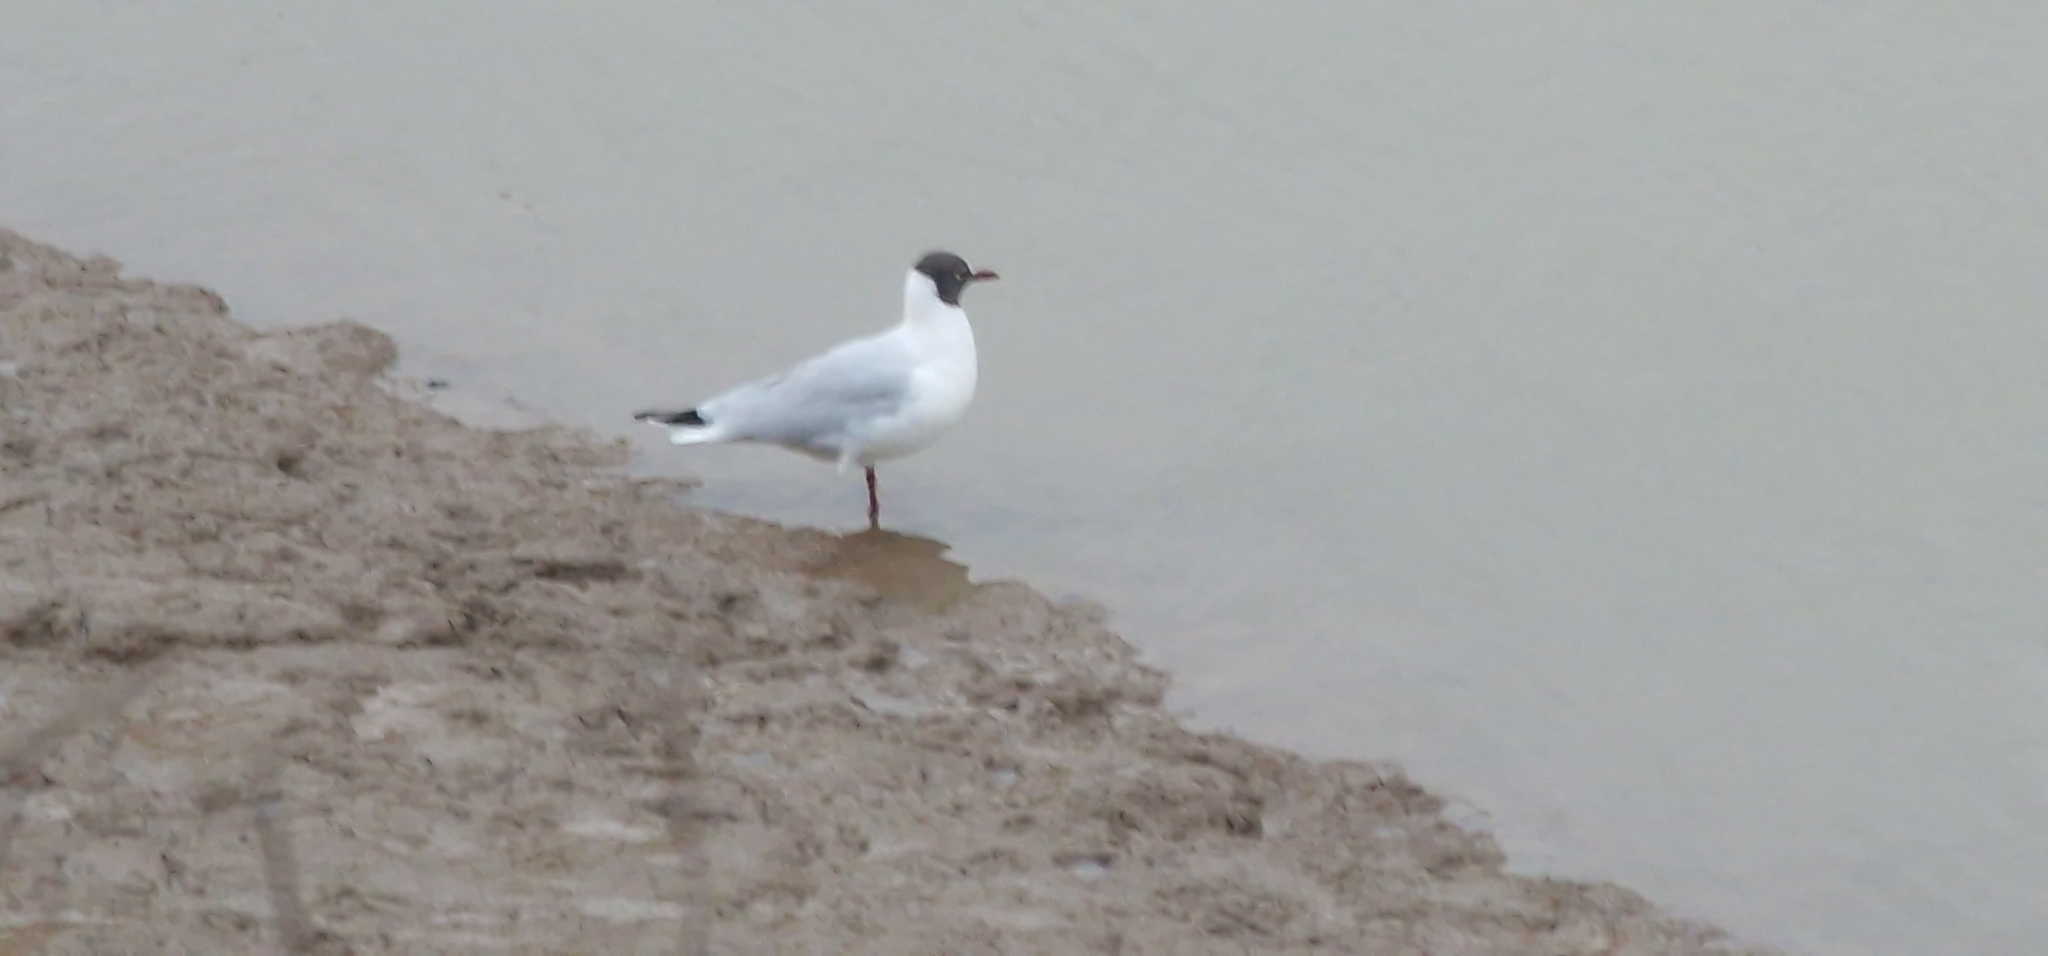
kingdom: Animalia
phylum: Chordata
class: Aves
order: Charadriiformes
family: Laridae
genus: Chroicocephalus
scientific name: Chroicocephalus ridibundus
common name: Black-headed gull
